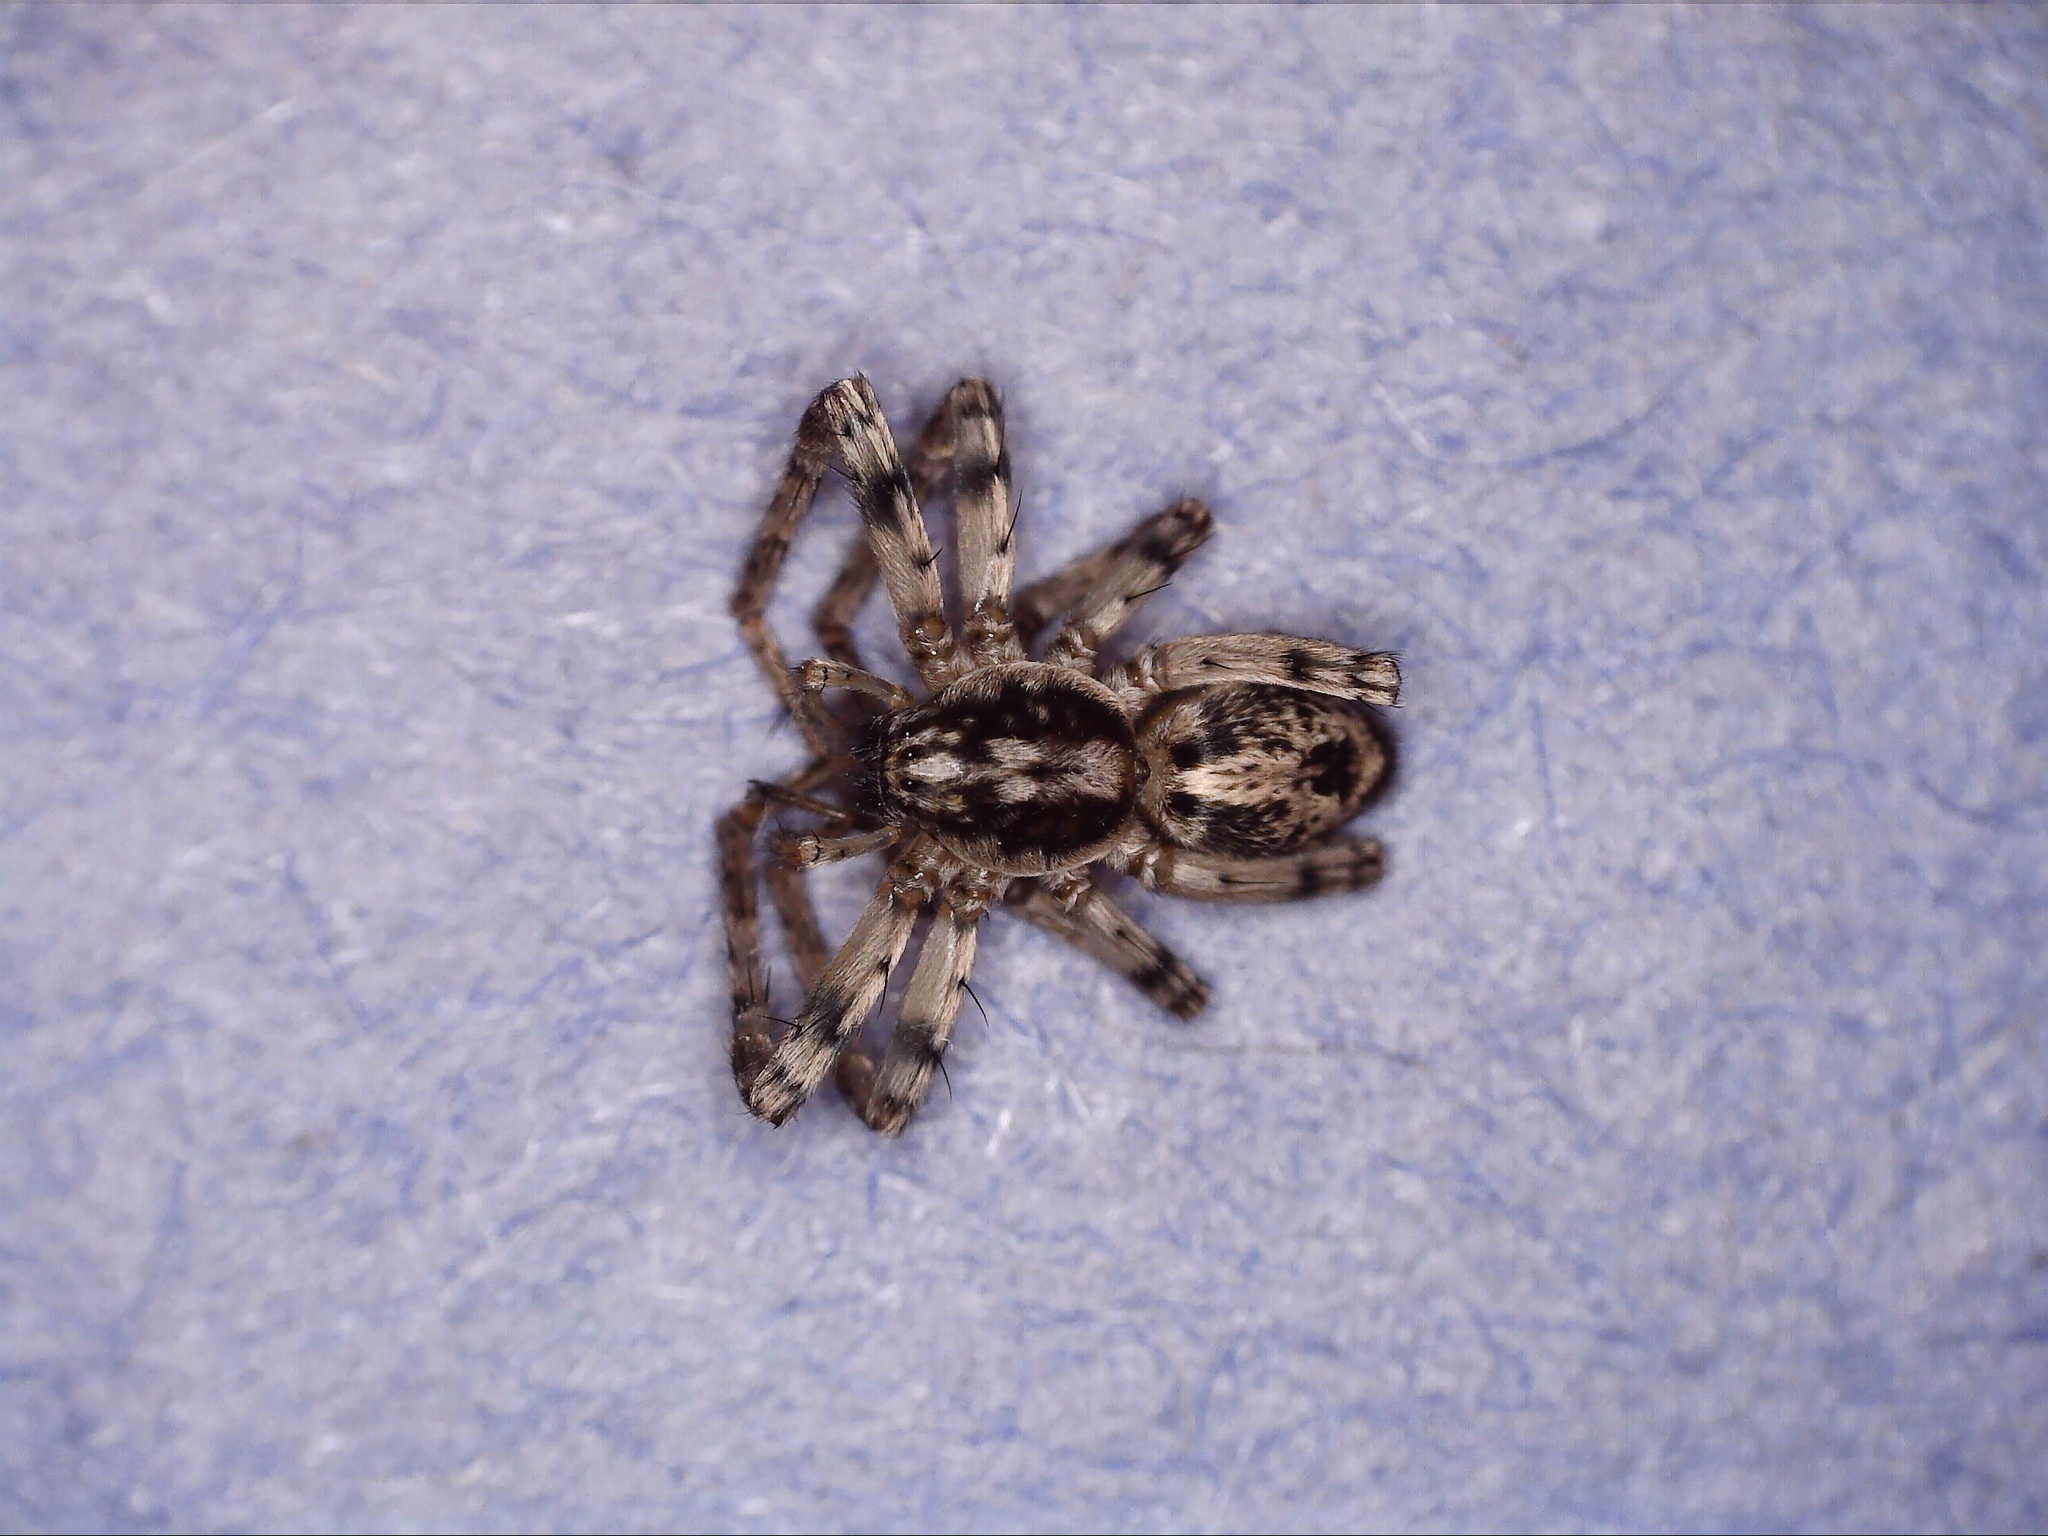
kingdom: Animalia
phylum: Arthropoda
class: Arachnida
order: Araneae
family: Anyphaenidae
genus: Anyphaena
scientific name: Anyphaena accentuata
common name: Buzzing spider
